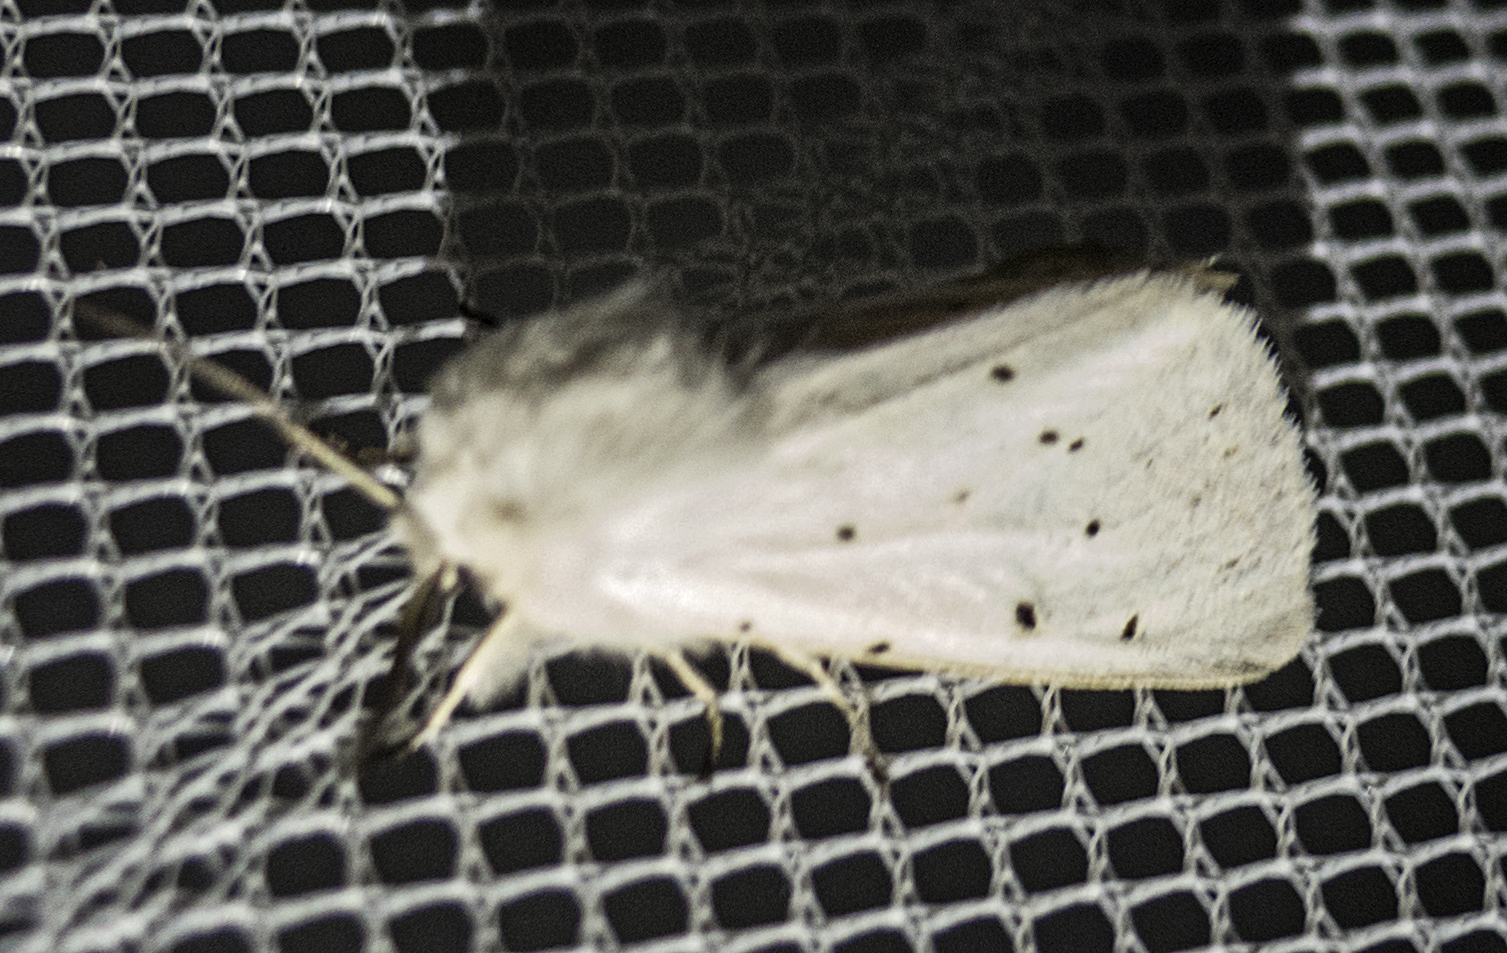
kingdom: Animalia
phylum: Arthropoda
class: Insecta
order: Lepidoptera
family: Erebidae
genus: Spilosoma
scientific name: Spilosoma lubricipeda
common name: White ermine
